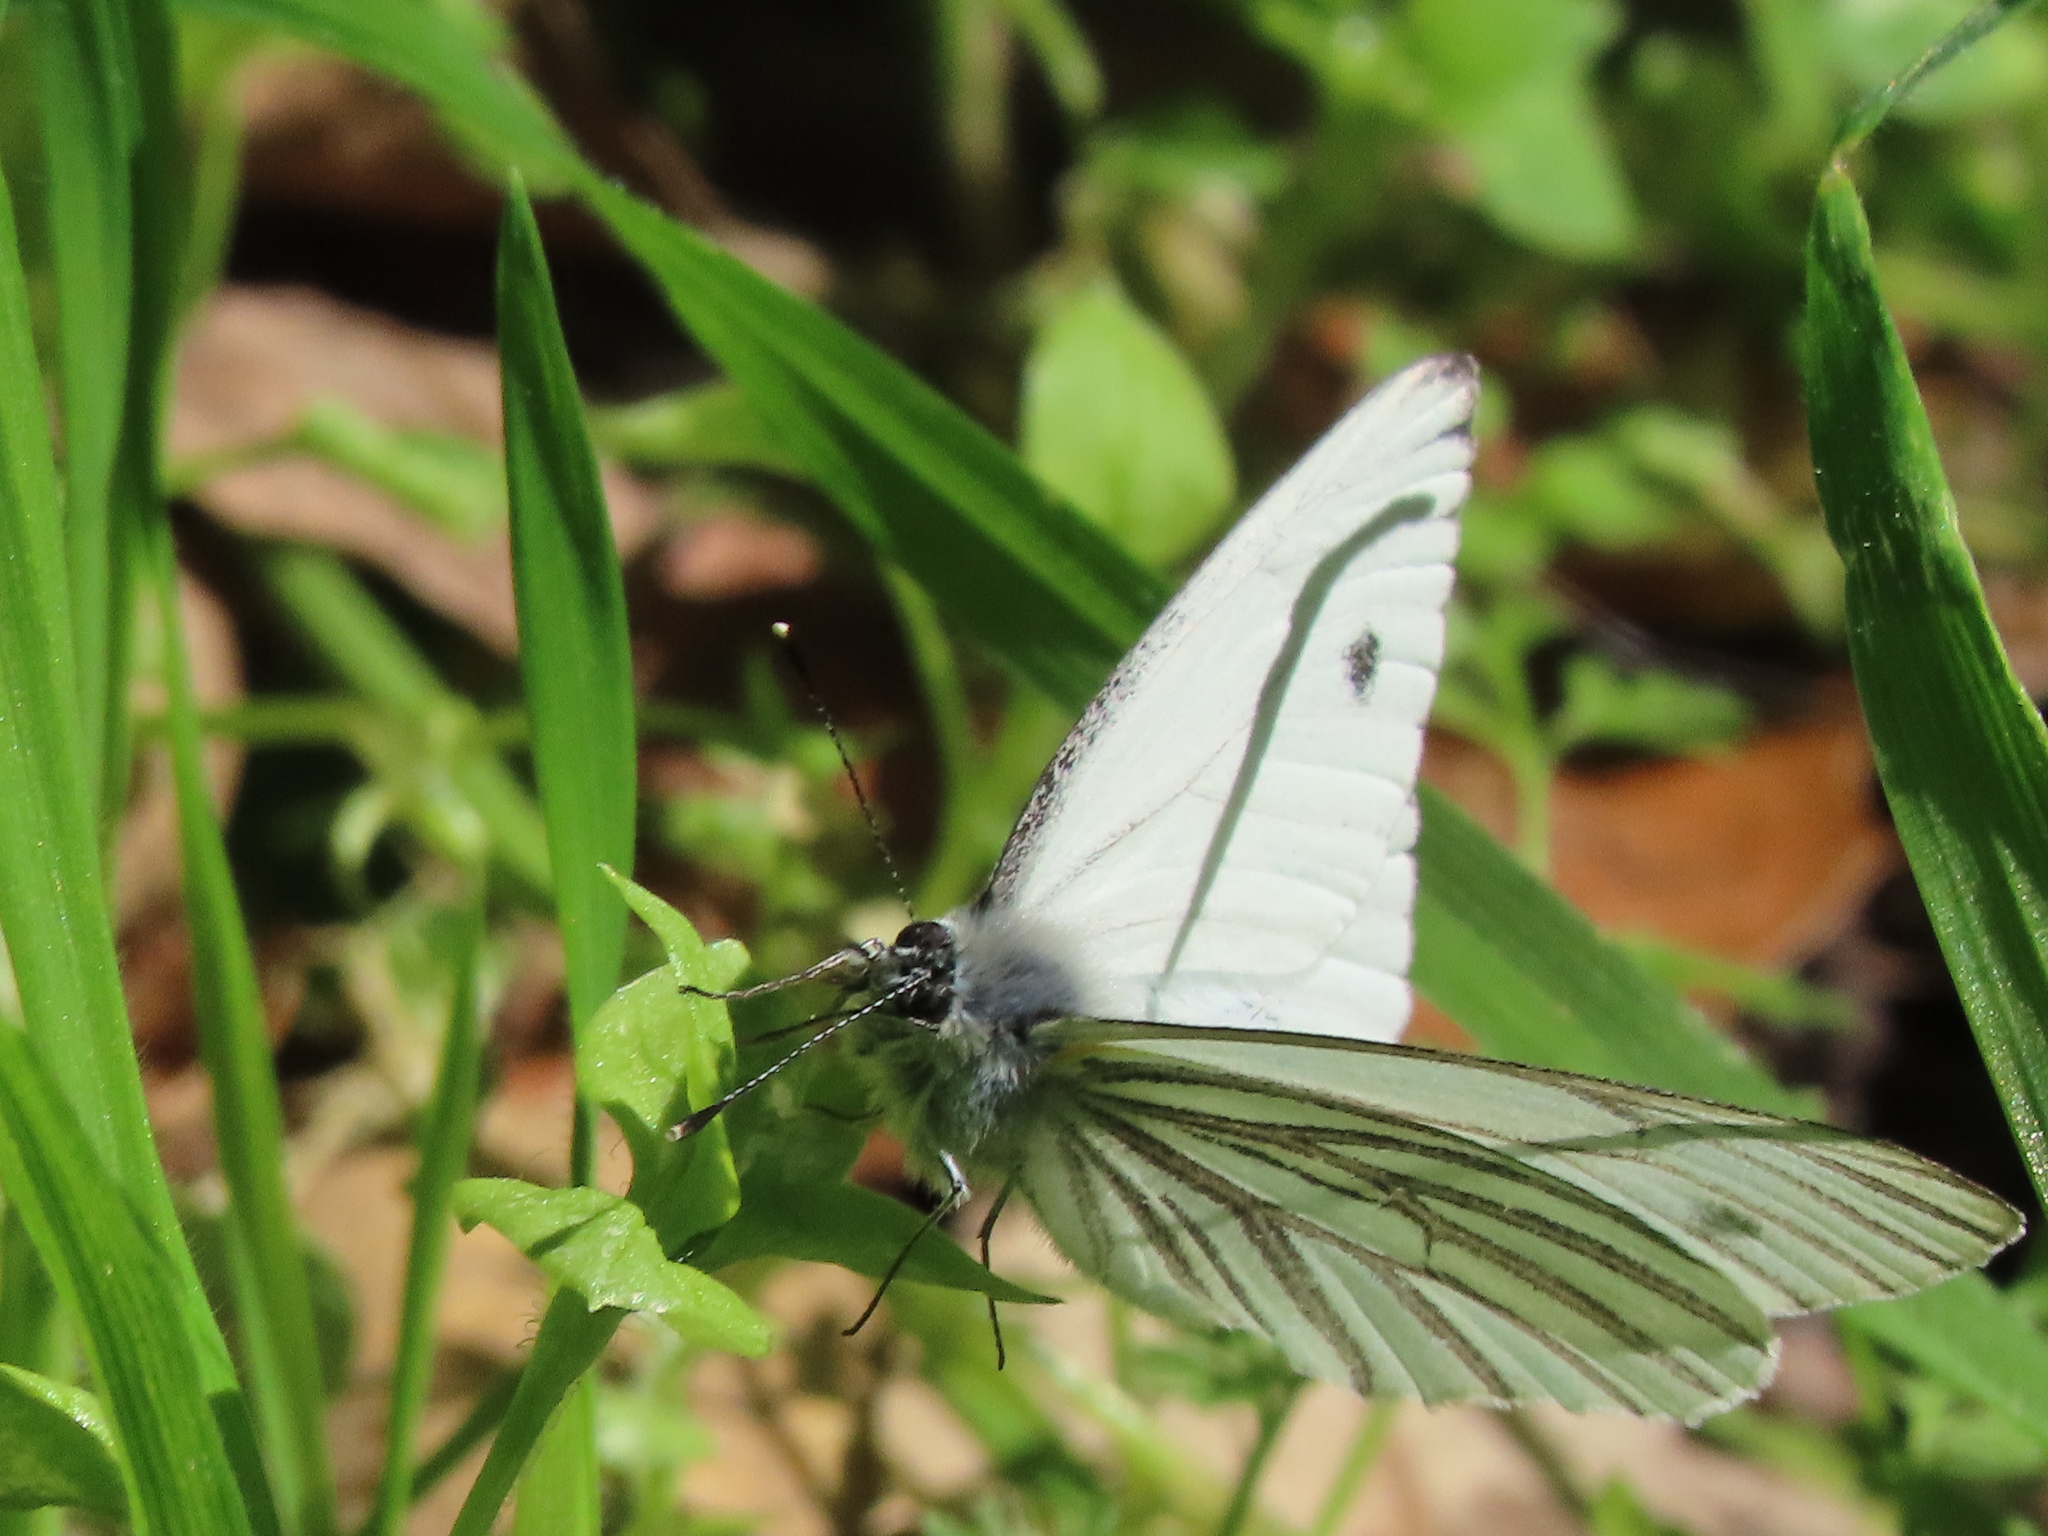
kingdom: Animalia
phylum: Arthropoda
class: Insecta
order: Lepidoptera
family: Pieridae
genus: Pieris
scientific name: Pieris marginalis
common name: Margined white
